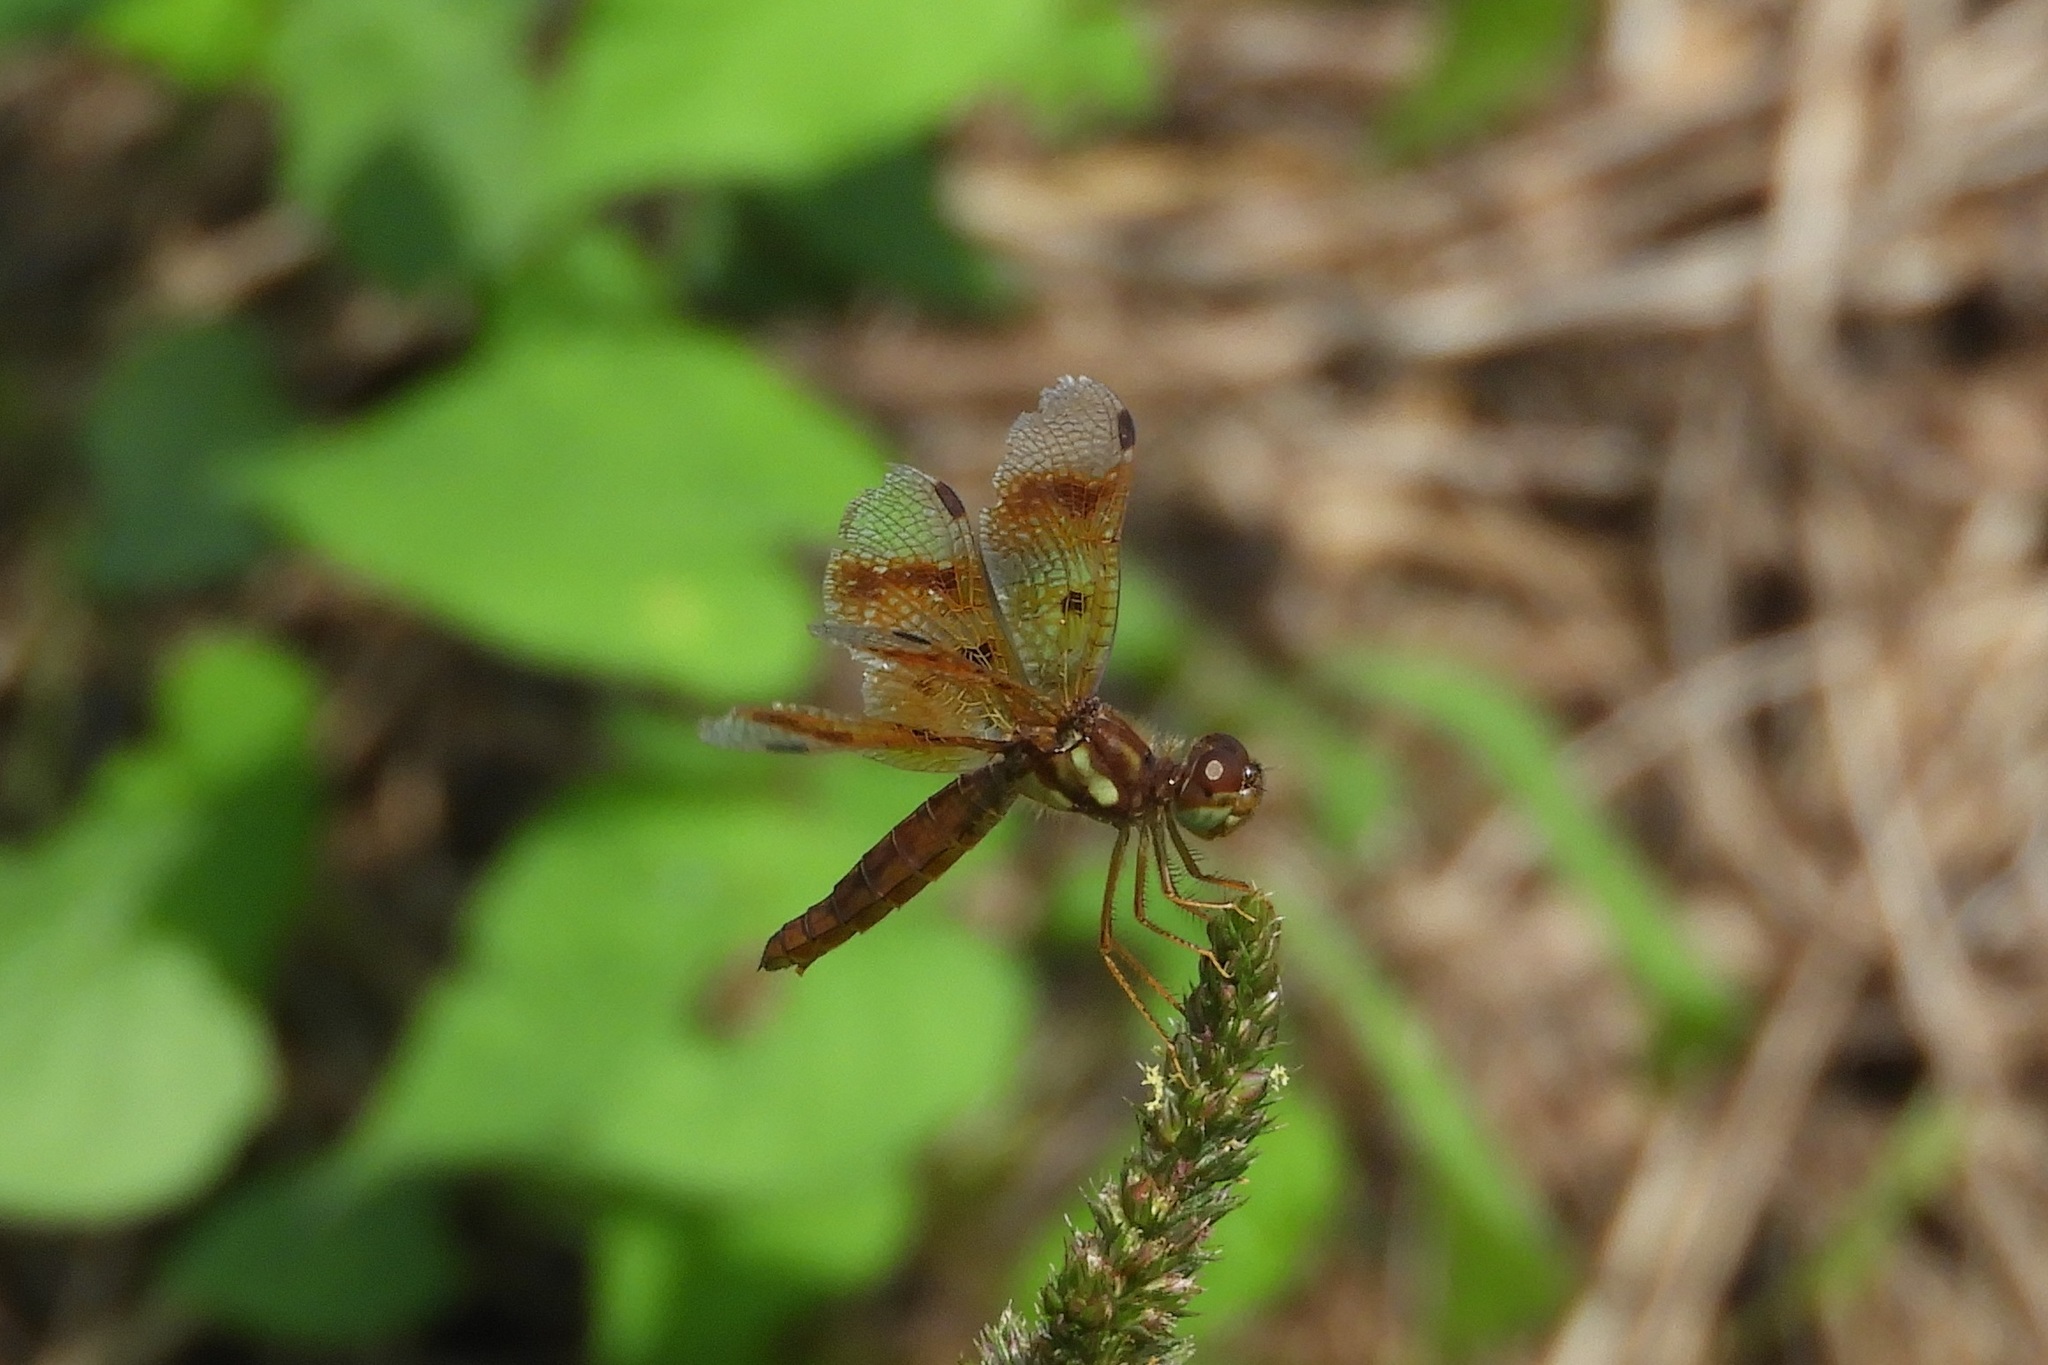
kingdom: Animalia
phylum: Arthropoda
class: Insecta
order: Odonata
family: Libellulidae
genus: Perithemis
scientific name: Perithemis tenera
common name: Eastern amberwing
